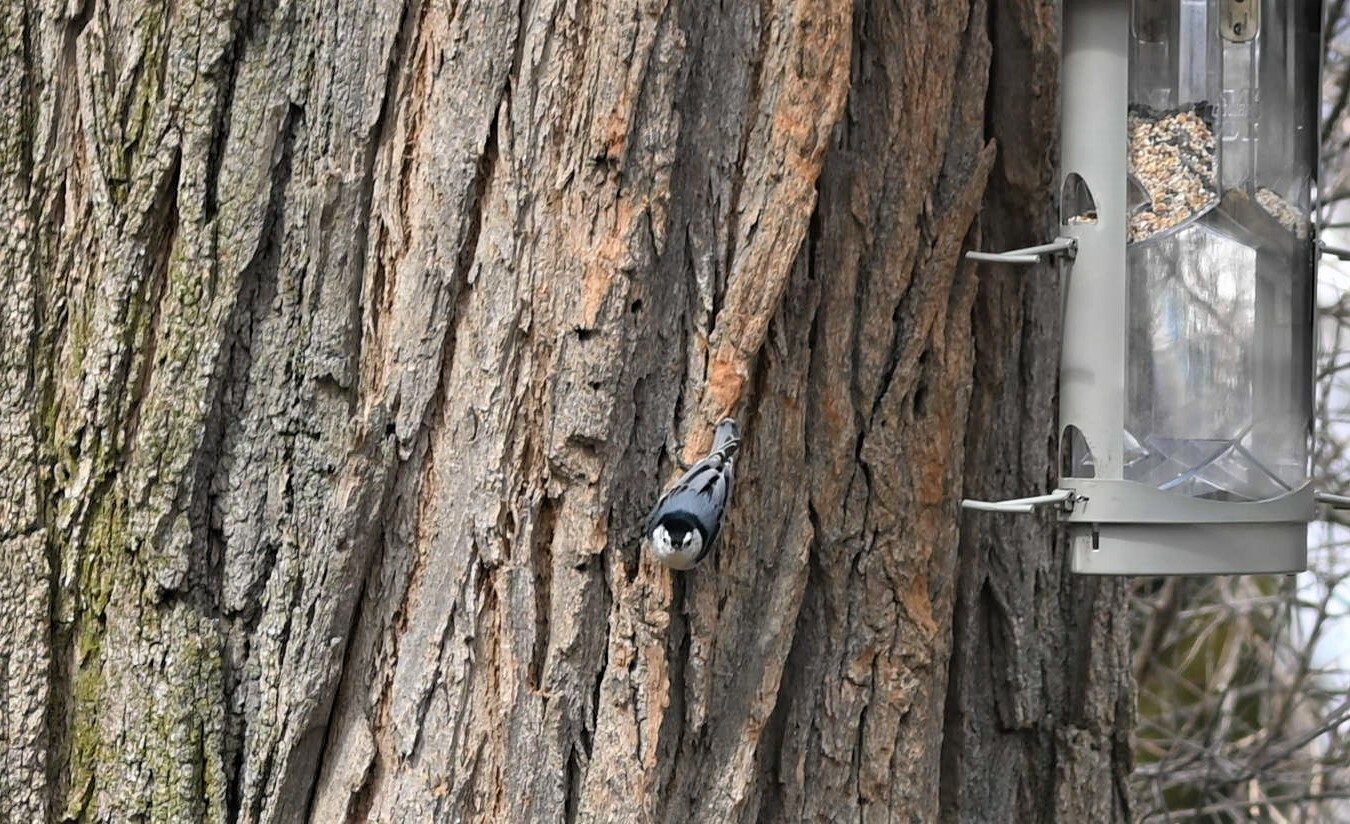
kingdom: Animalia
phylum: Chordata
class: Aves
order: Passeriformes
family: Sittidae
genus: Sitta
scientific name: Sitta carolinensis
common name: White-breasted nuthatch
